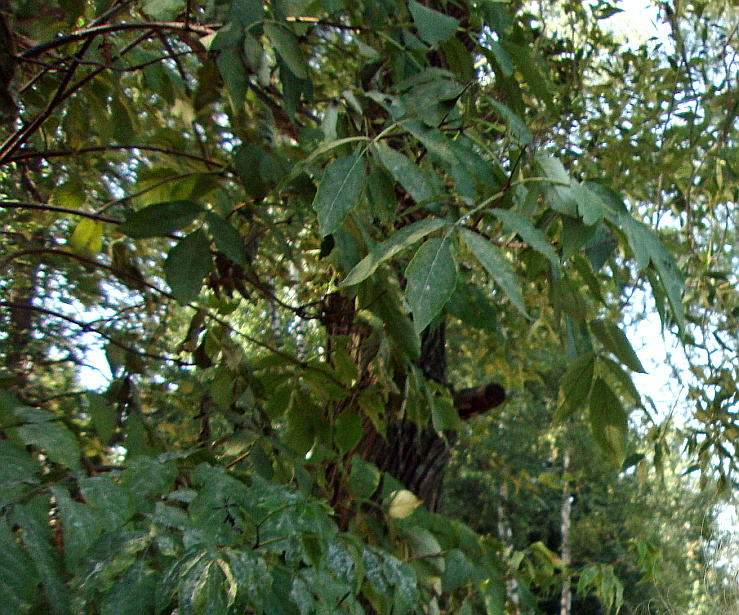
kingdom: Plantae
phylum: Tracheophyta
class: Magnoliopsida
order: Sapindales
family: Sapindaceae
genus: Acer
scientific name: Acer negundo
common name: Ashleaf maple
